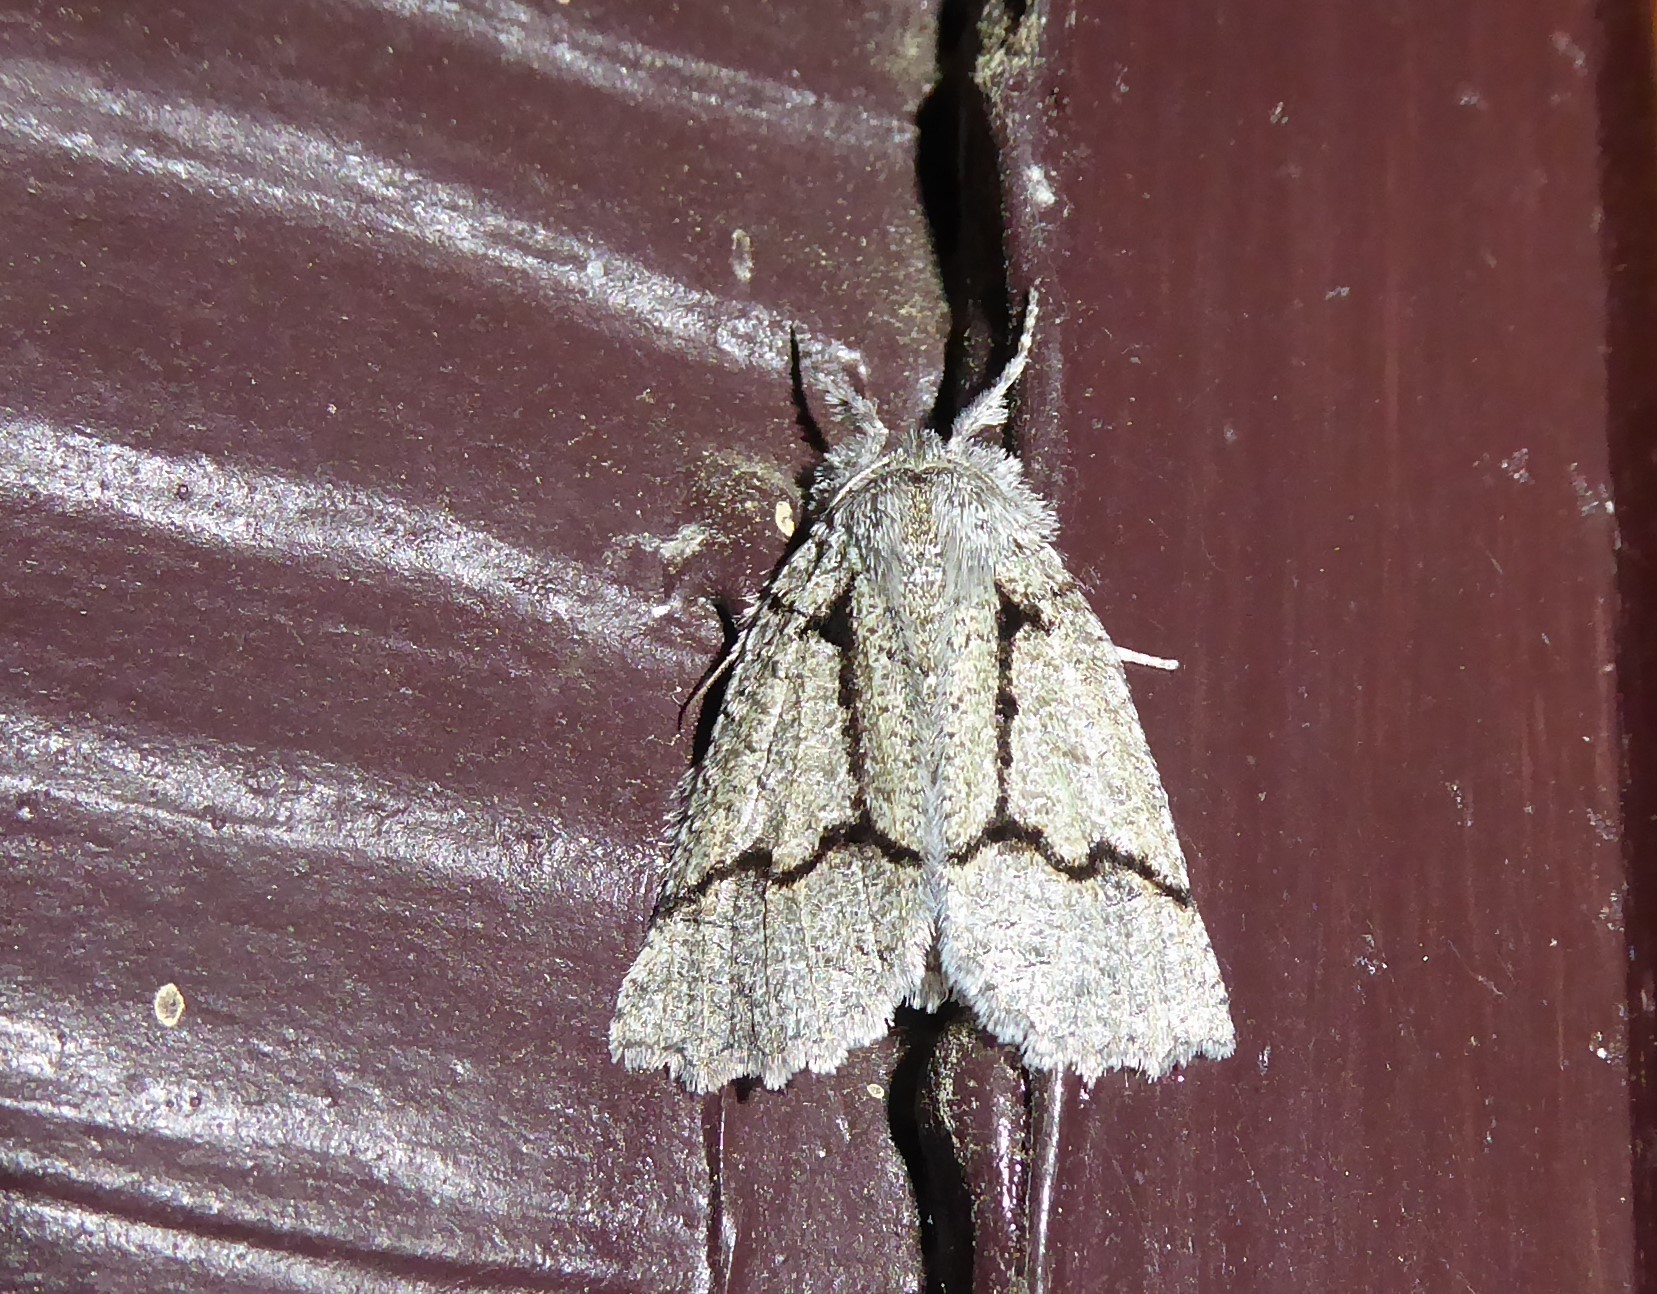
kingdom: Animalia
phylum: Arthropoda
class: Insecta
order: Lepidoptera
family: Geometridae
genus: Declana
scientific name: Declana floccosa
